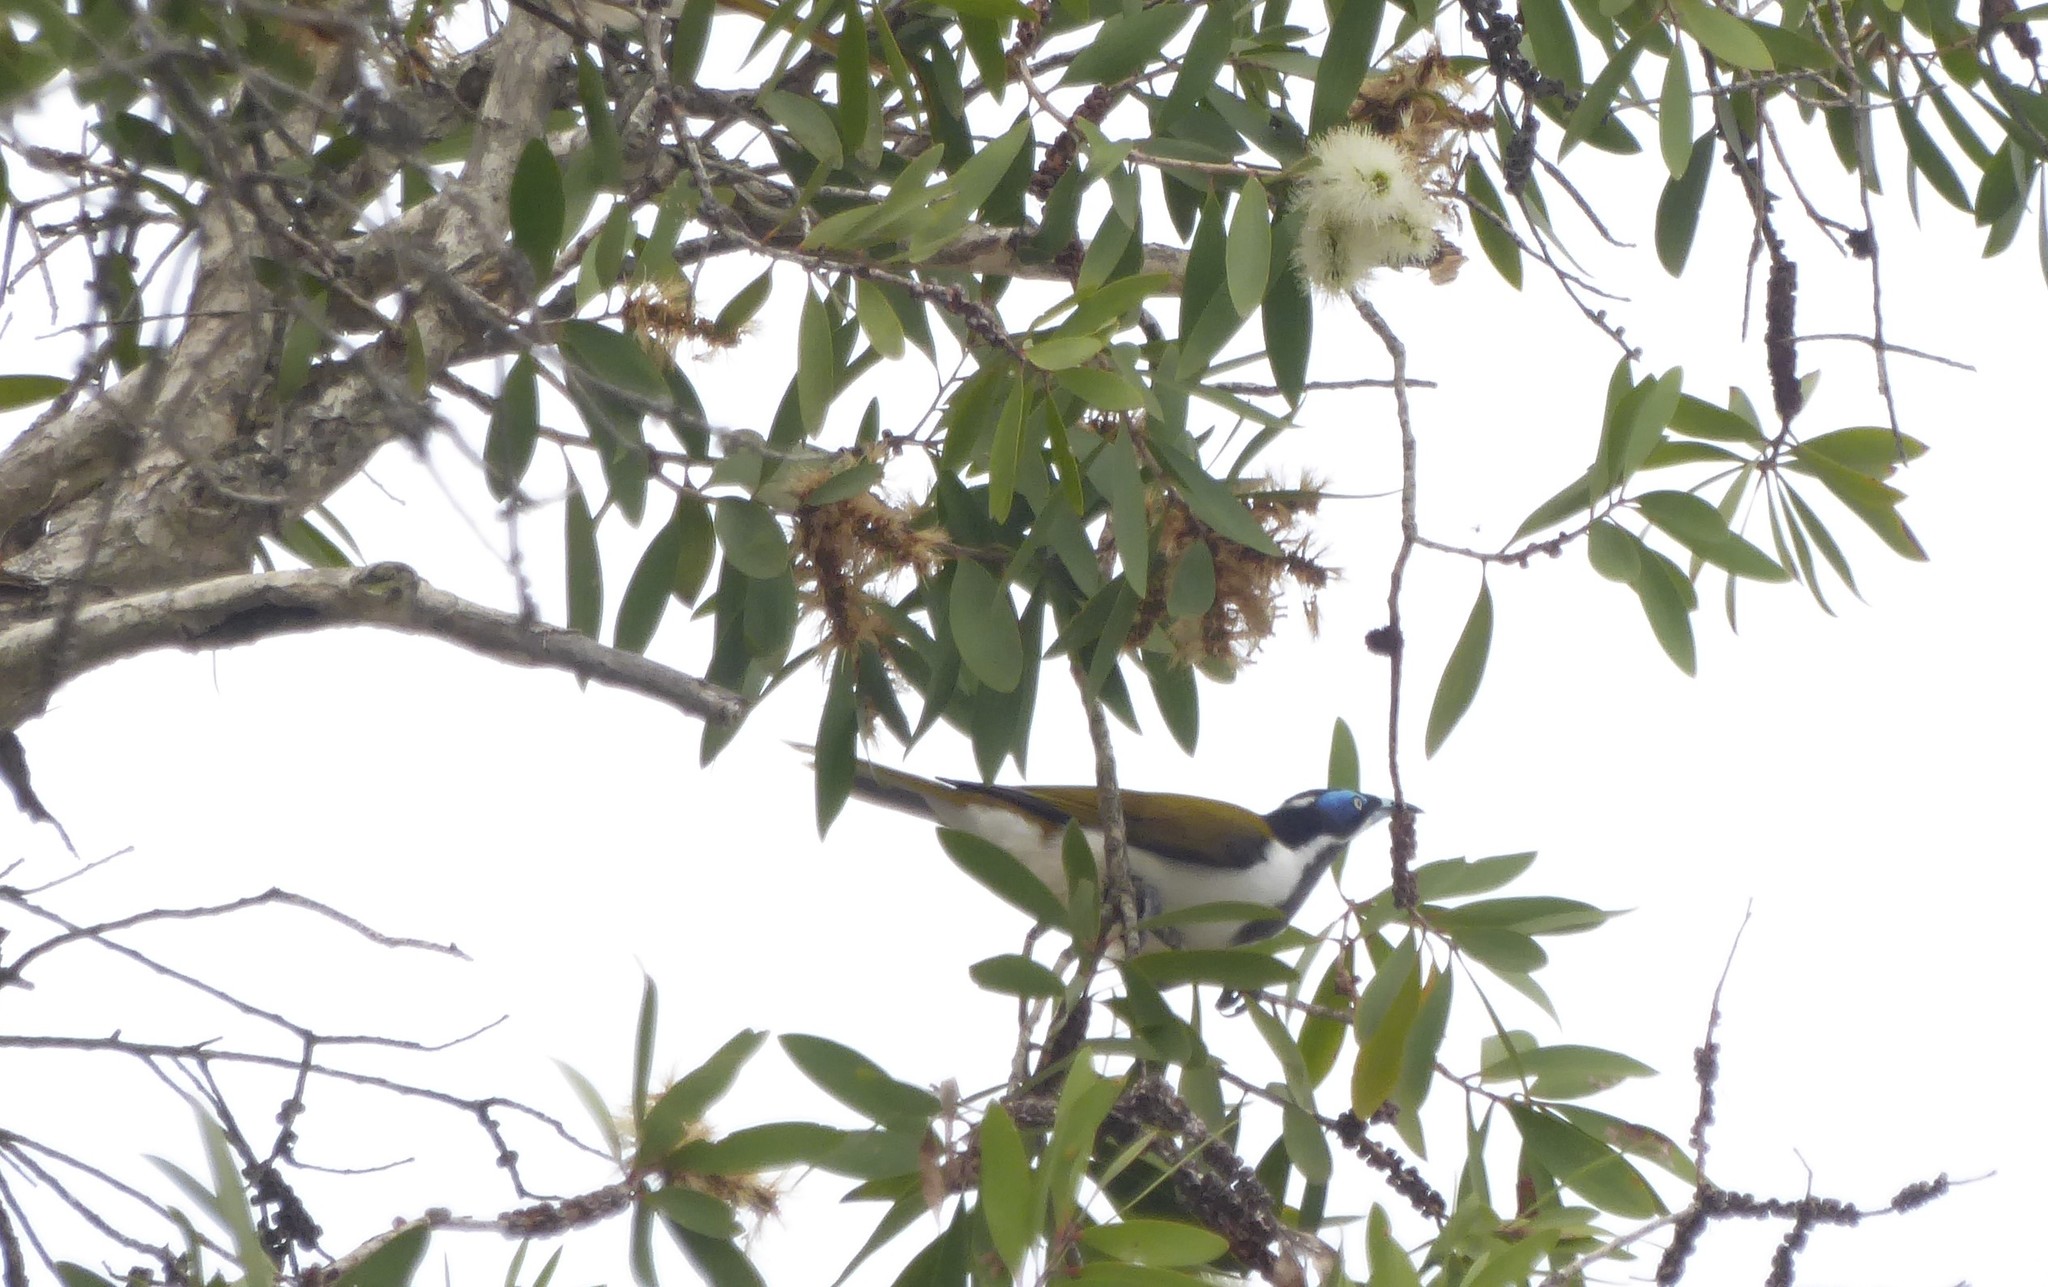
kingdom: Animalia
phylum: Chordata
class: Aves
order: Passeriformes
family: Meliphagidae
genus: Entomyzon
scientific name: Entomyzon cyanotis
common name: Blue-faced honeyeater
